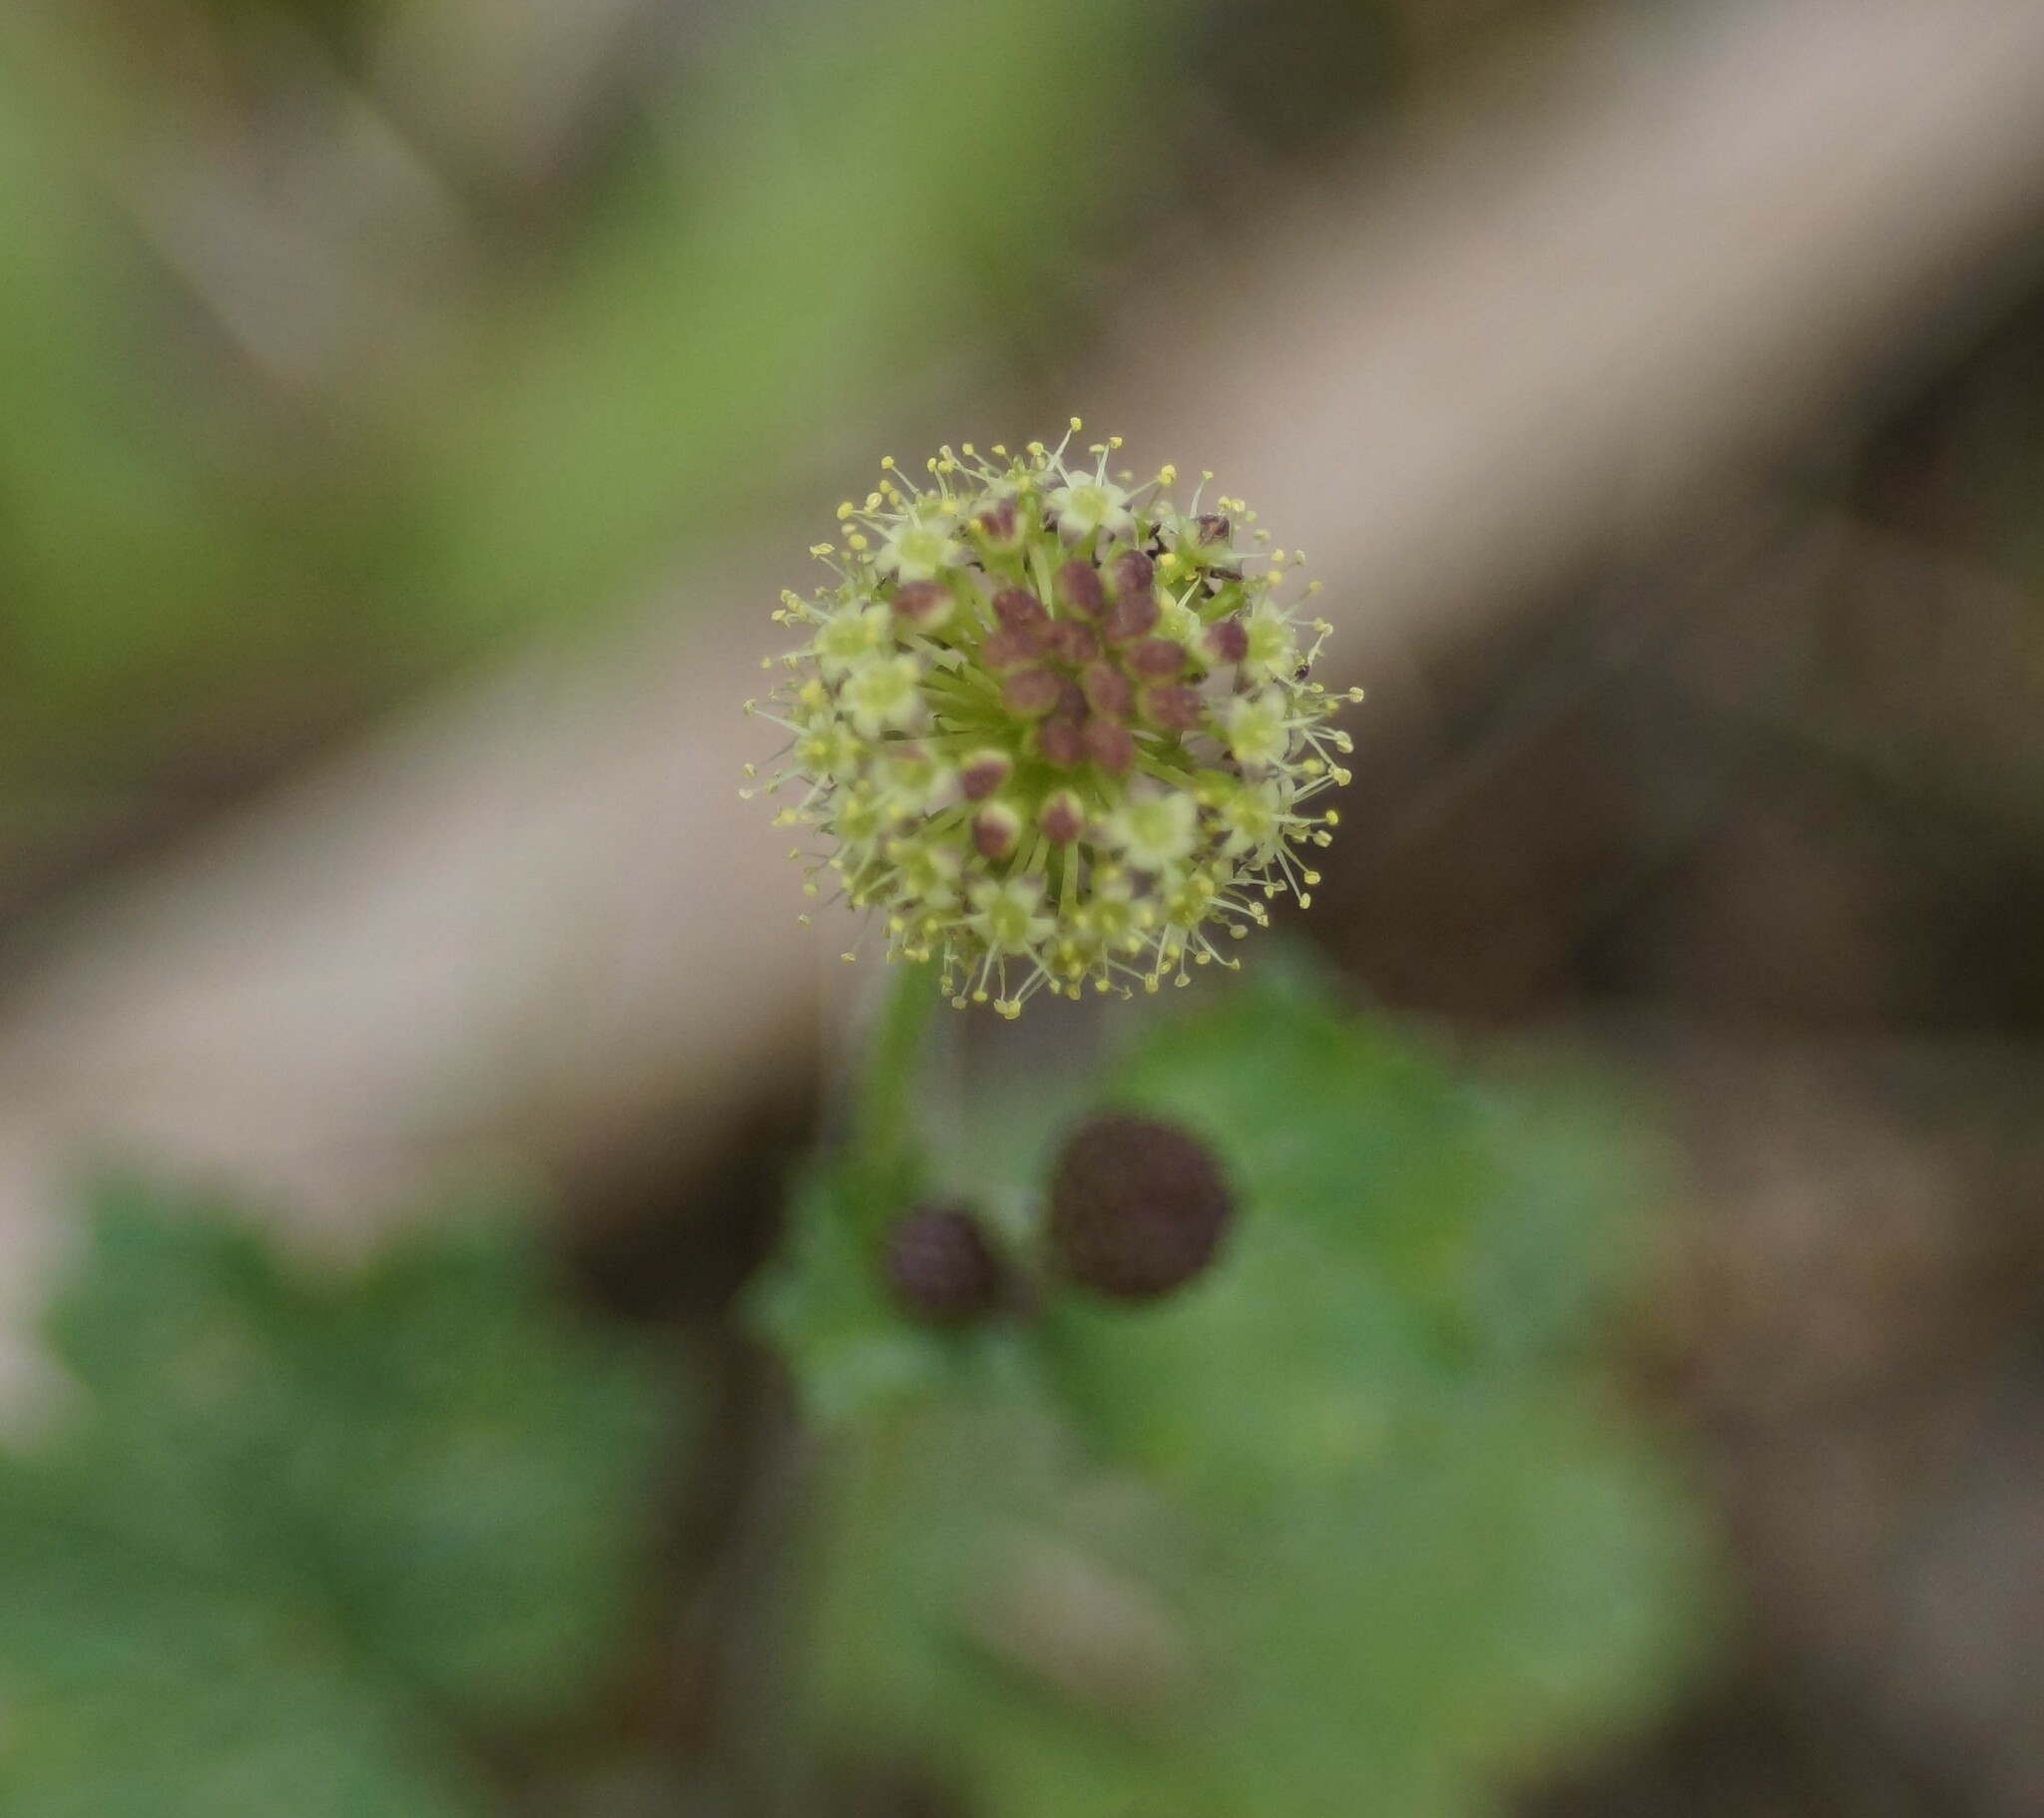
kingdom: Plantae
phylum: Tracheophyta
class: Magnoliopsida
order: Apiales
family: Araliaceae
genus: Hydrocotyle
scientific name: Hydrocotyle laxiflora
